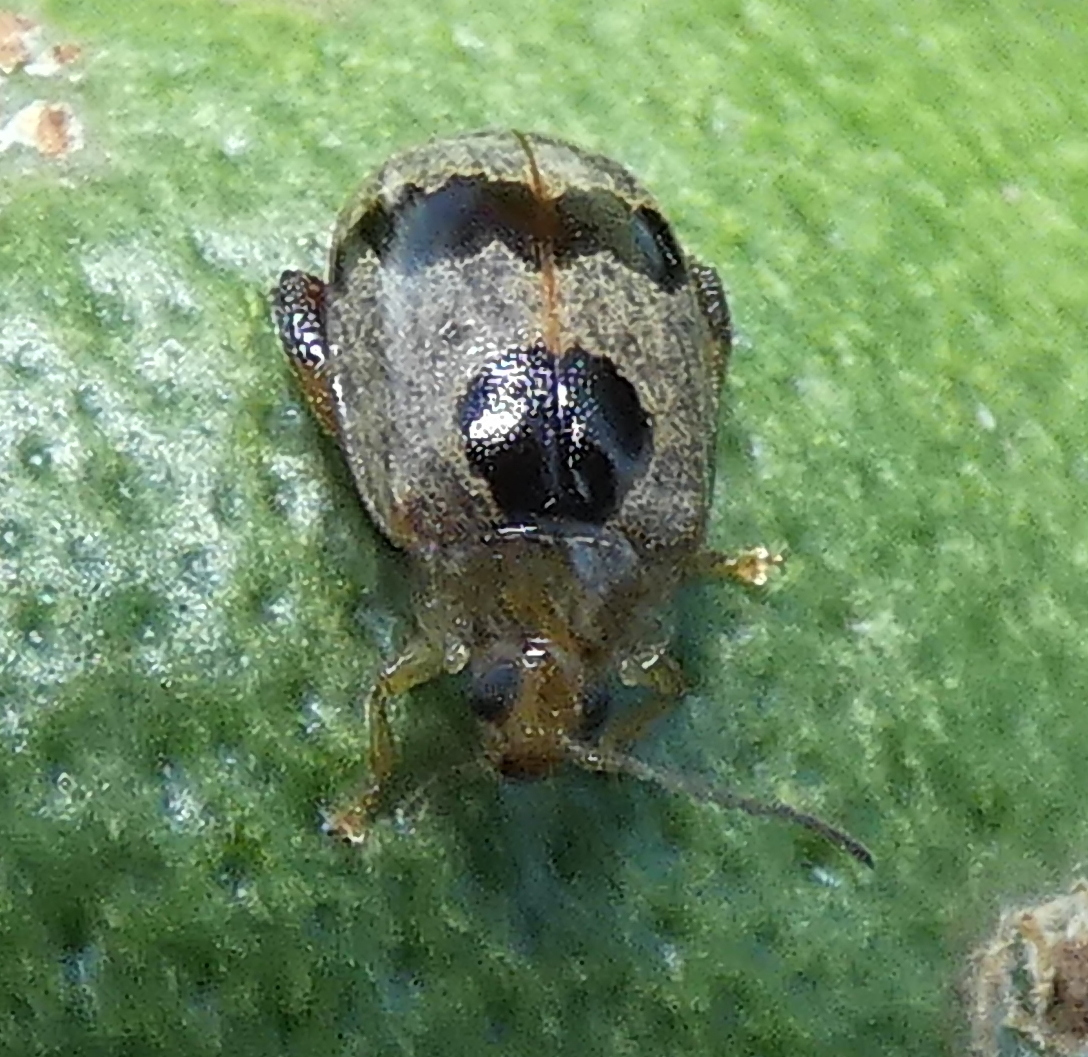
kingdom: Animalia
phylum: Arthropoda
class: Insecta
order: Coleoptera
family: Chrysomelidae
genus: Alagoasa
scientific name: Alagoasa
